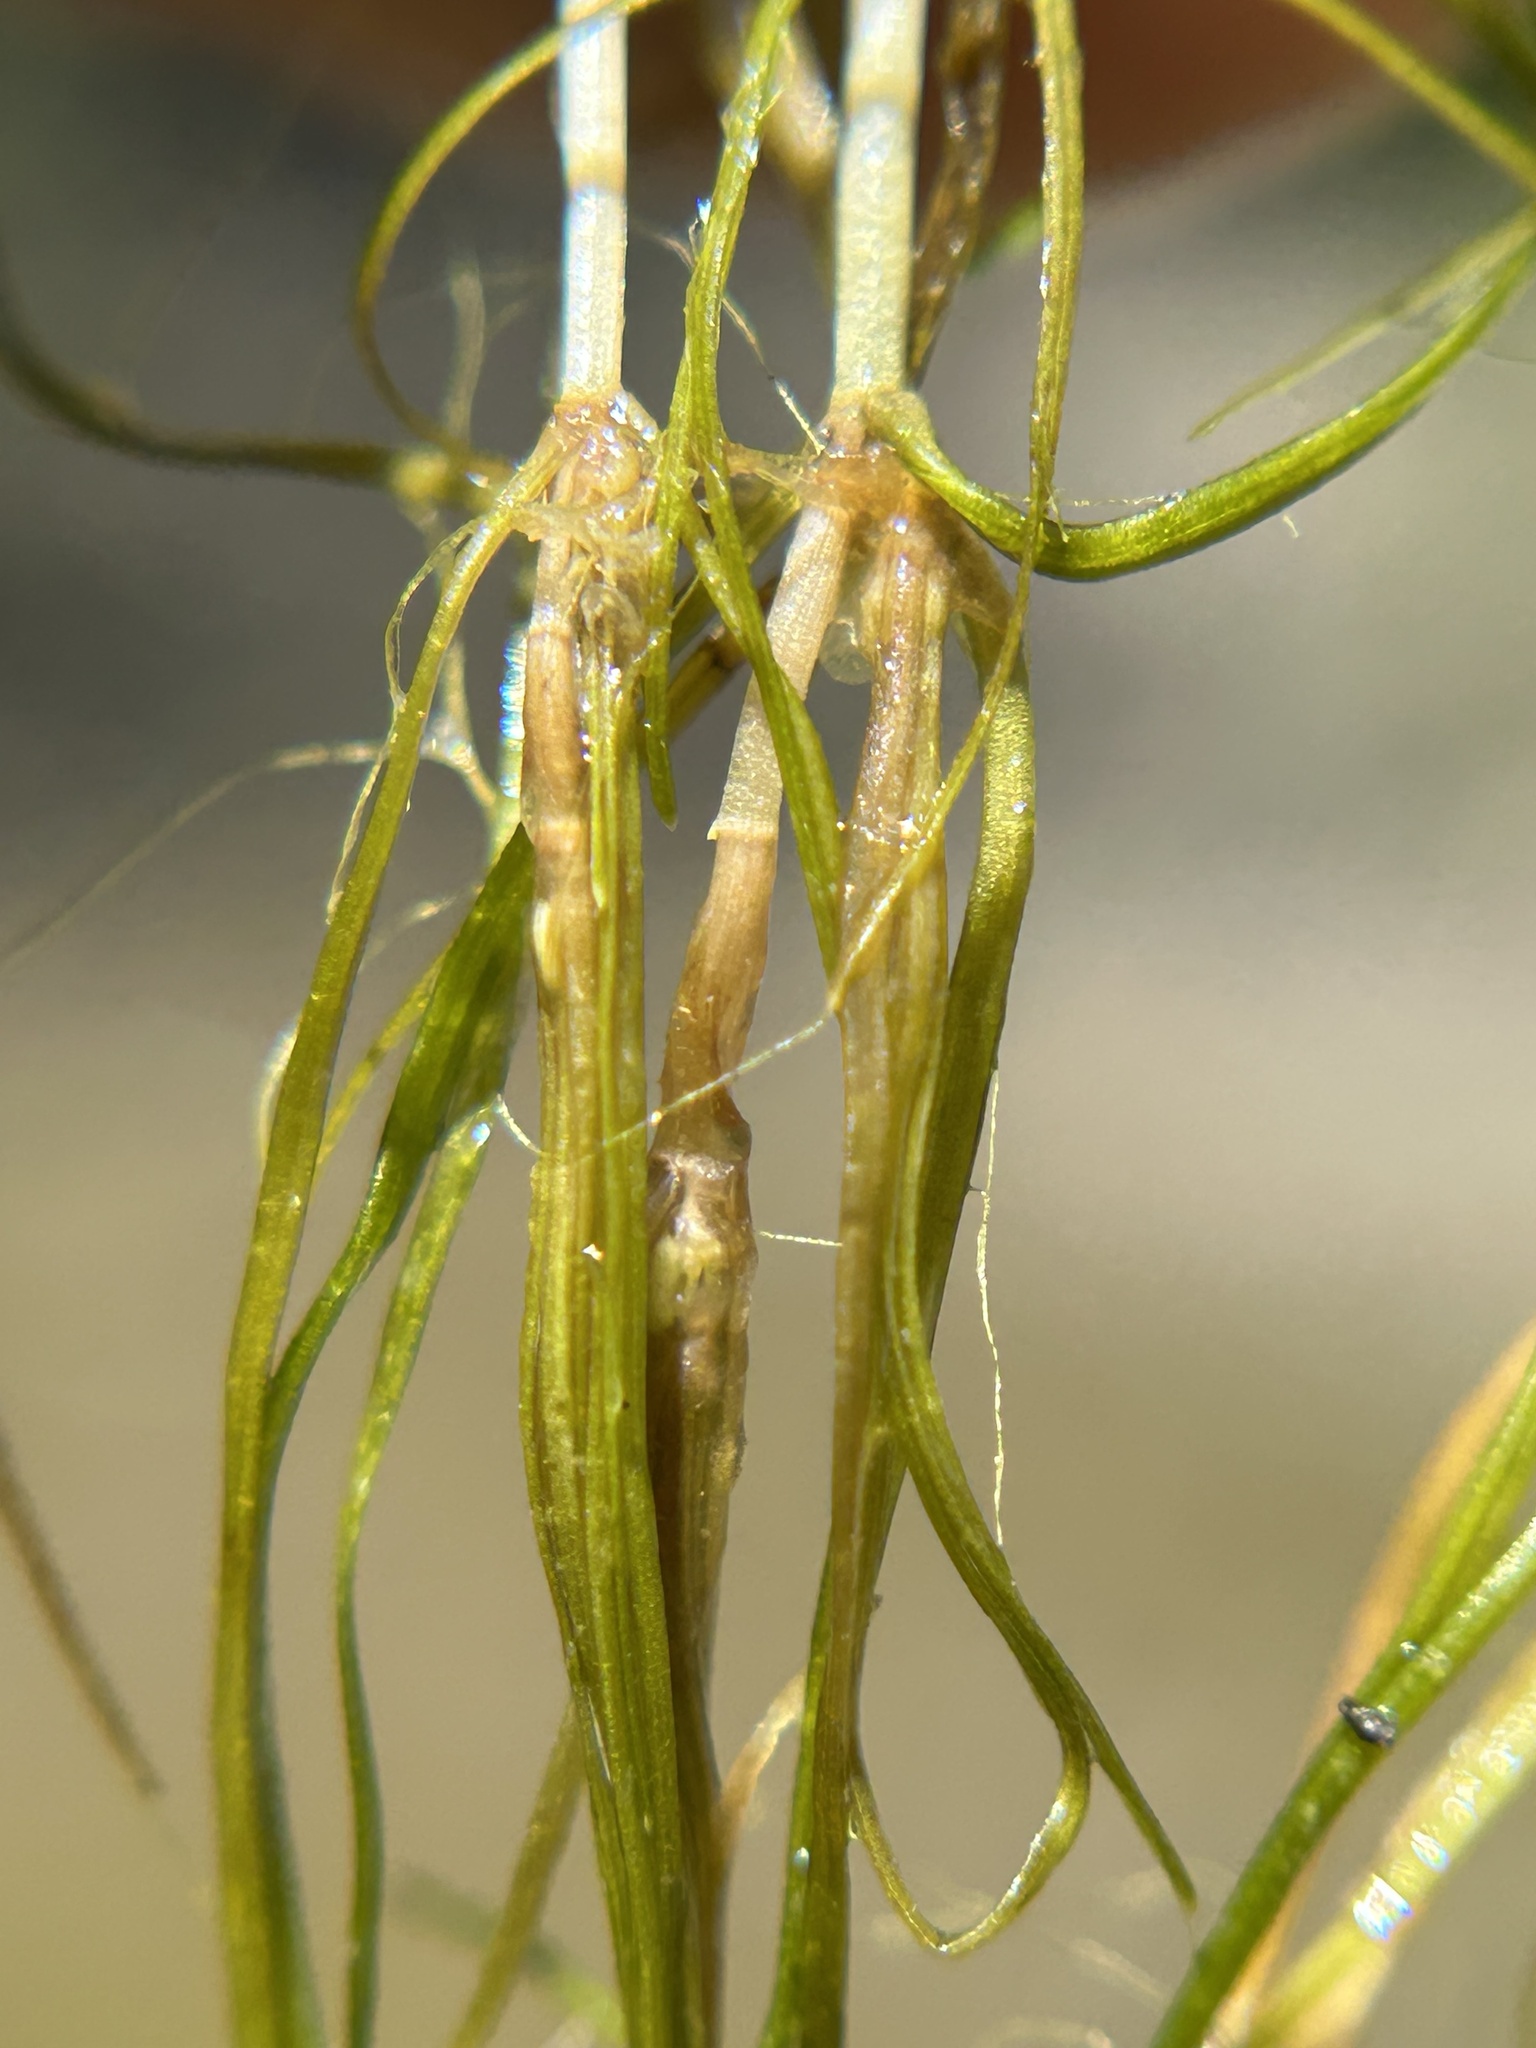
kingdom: Plantae
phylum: Tracheophyta
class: Liliopsida
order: Alismatales
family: Potamogetonaceae
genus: Zannichellia
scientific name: Zannichellia palustris
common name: Horned pondweed
